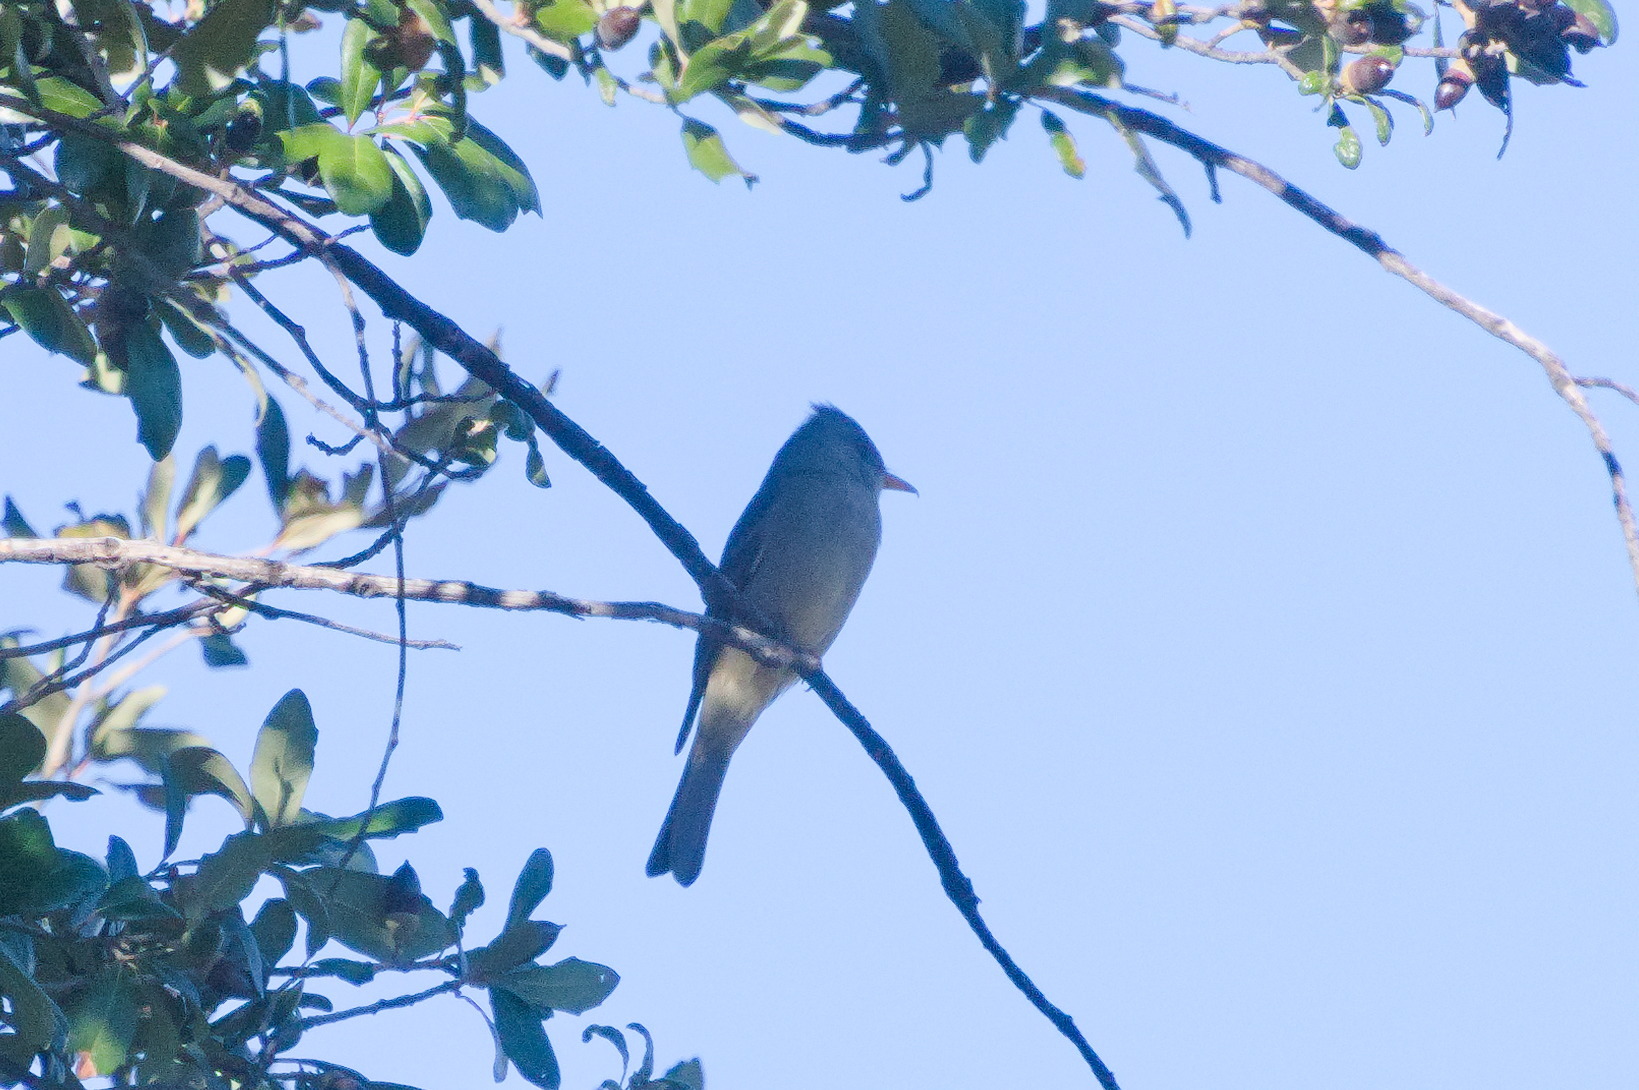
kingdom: Animalia
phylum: Chordata
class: Aves
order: Passeriformes
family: Tyrannidae
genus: Contopus
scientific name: Contopus pertinax
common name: Greater pewee
